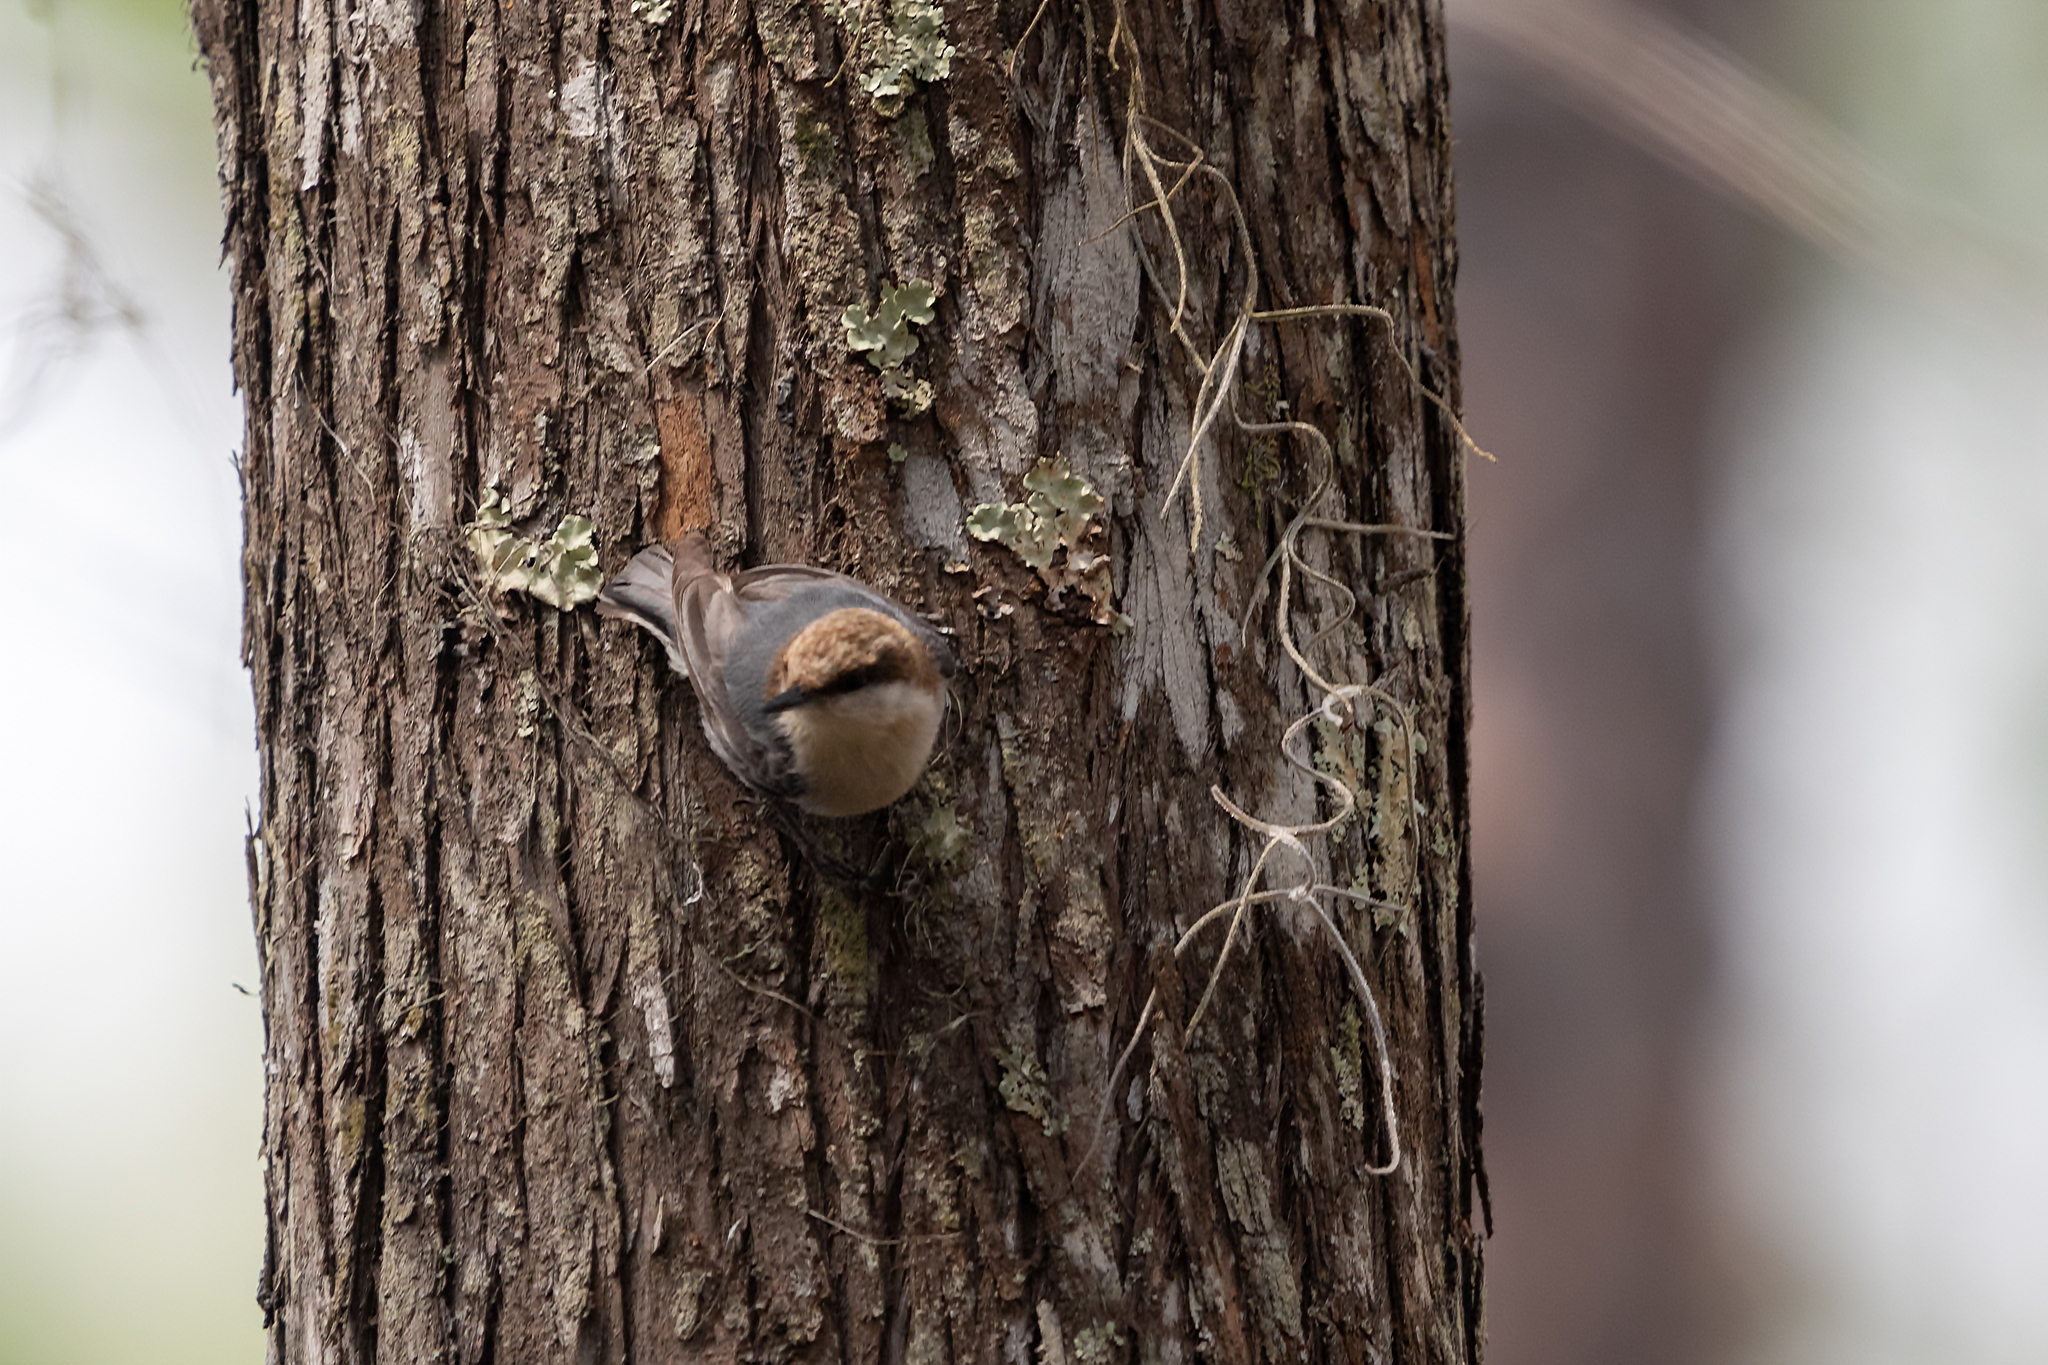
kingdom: Animalia
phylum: Chordata
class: Aves
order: Passeriformes
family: Sittidae
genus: Sitta
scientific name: Sitta pusilla
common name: Brown-headed nuthatch
